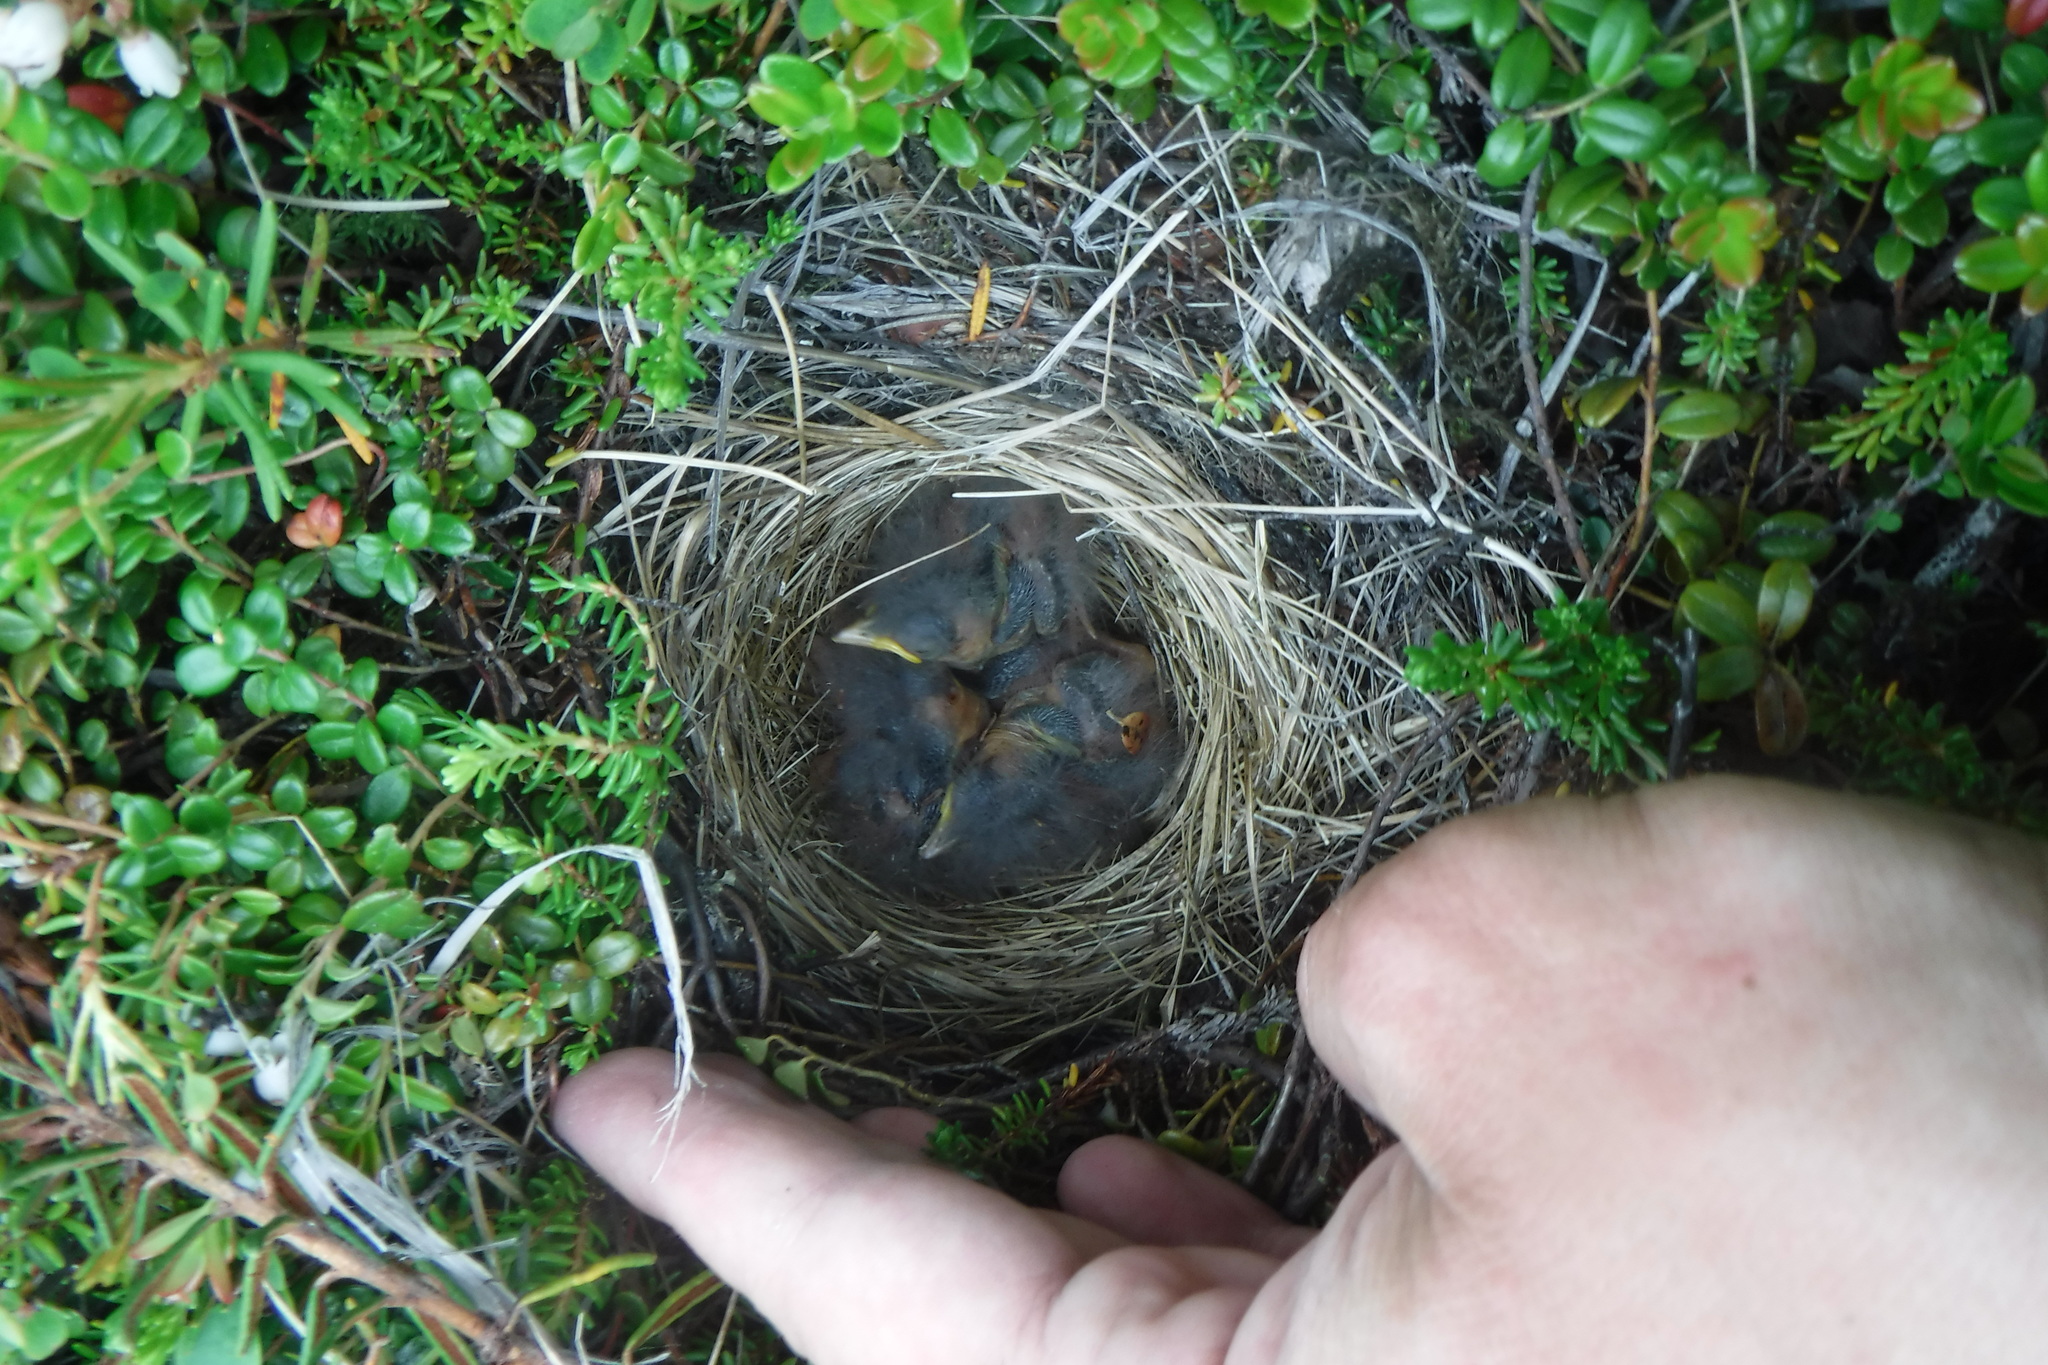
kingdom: Animalia
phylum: Chordata
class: Aves
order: Passeriformes
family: Motacillidae
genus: Anthus
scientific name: Anthus rubescens
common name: Buff-bellied pipit
